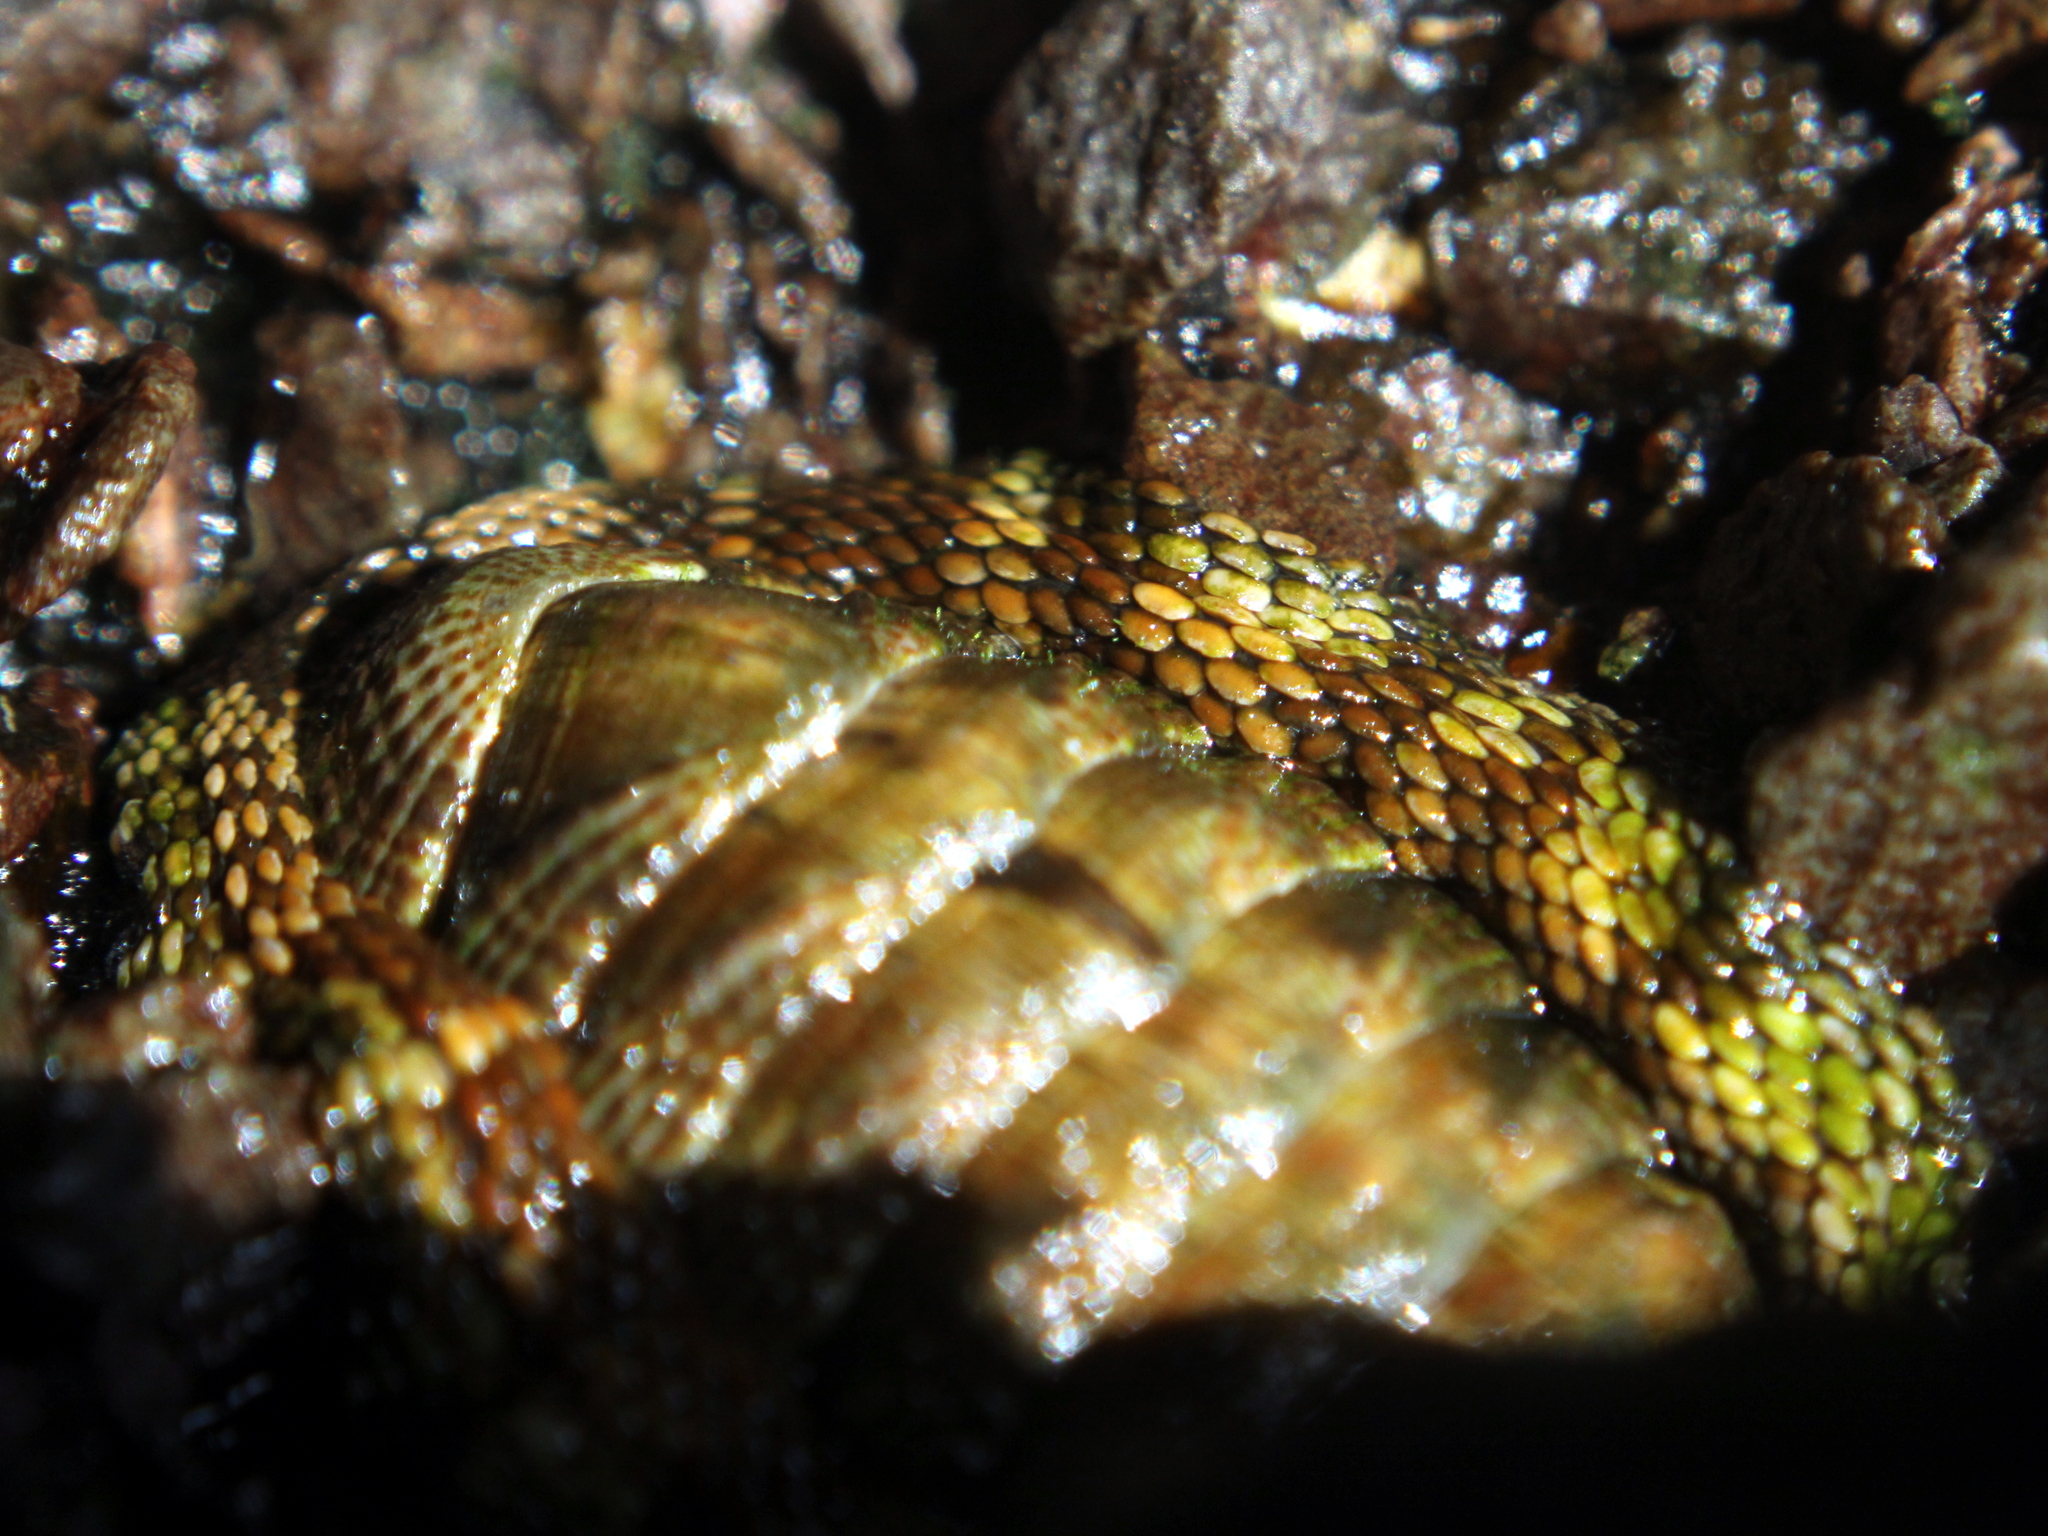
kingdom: Animalia
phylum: Mollusca
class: Polyplacophora
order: Chitonida
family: Chitonidae
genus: Sypharochiton
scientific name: Sypharochiton pelliserpentis
